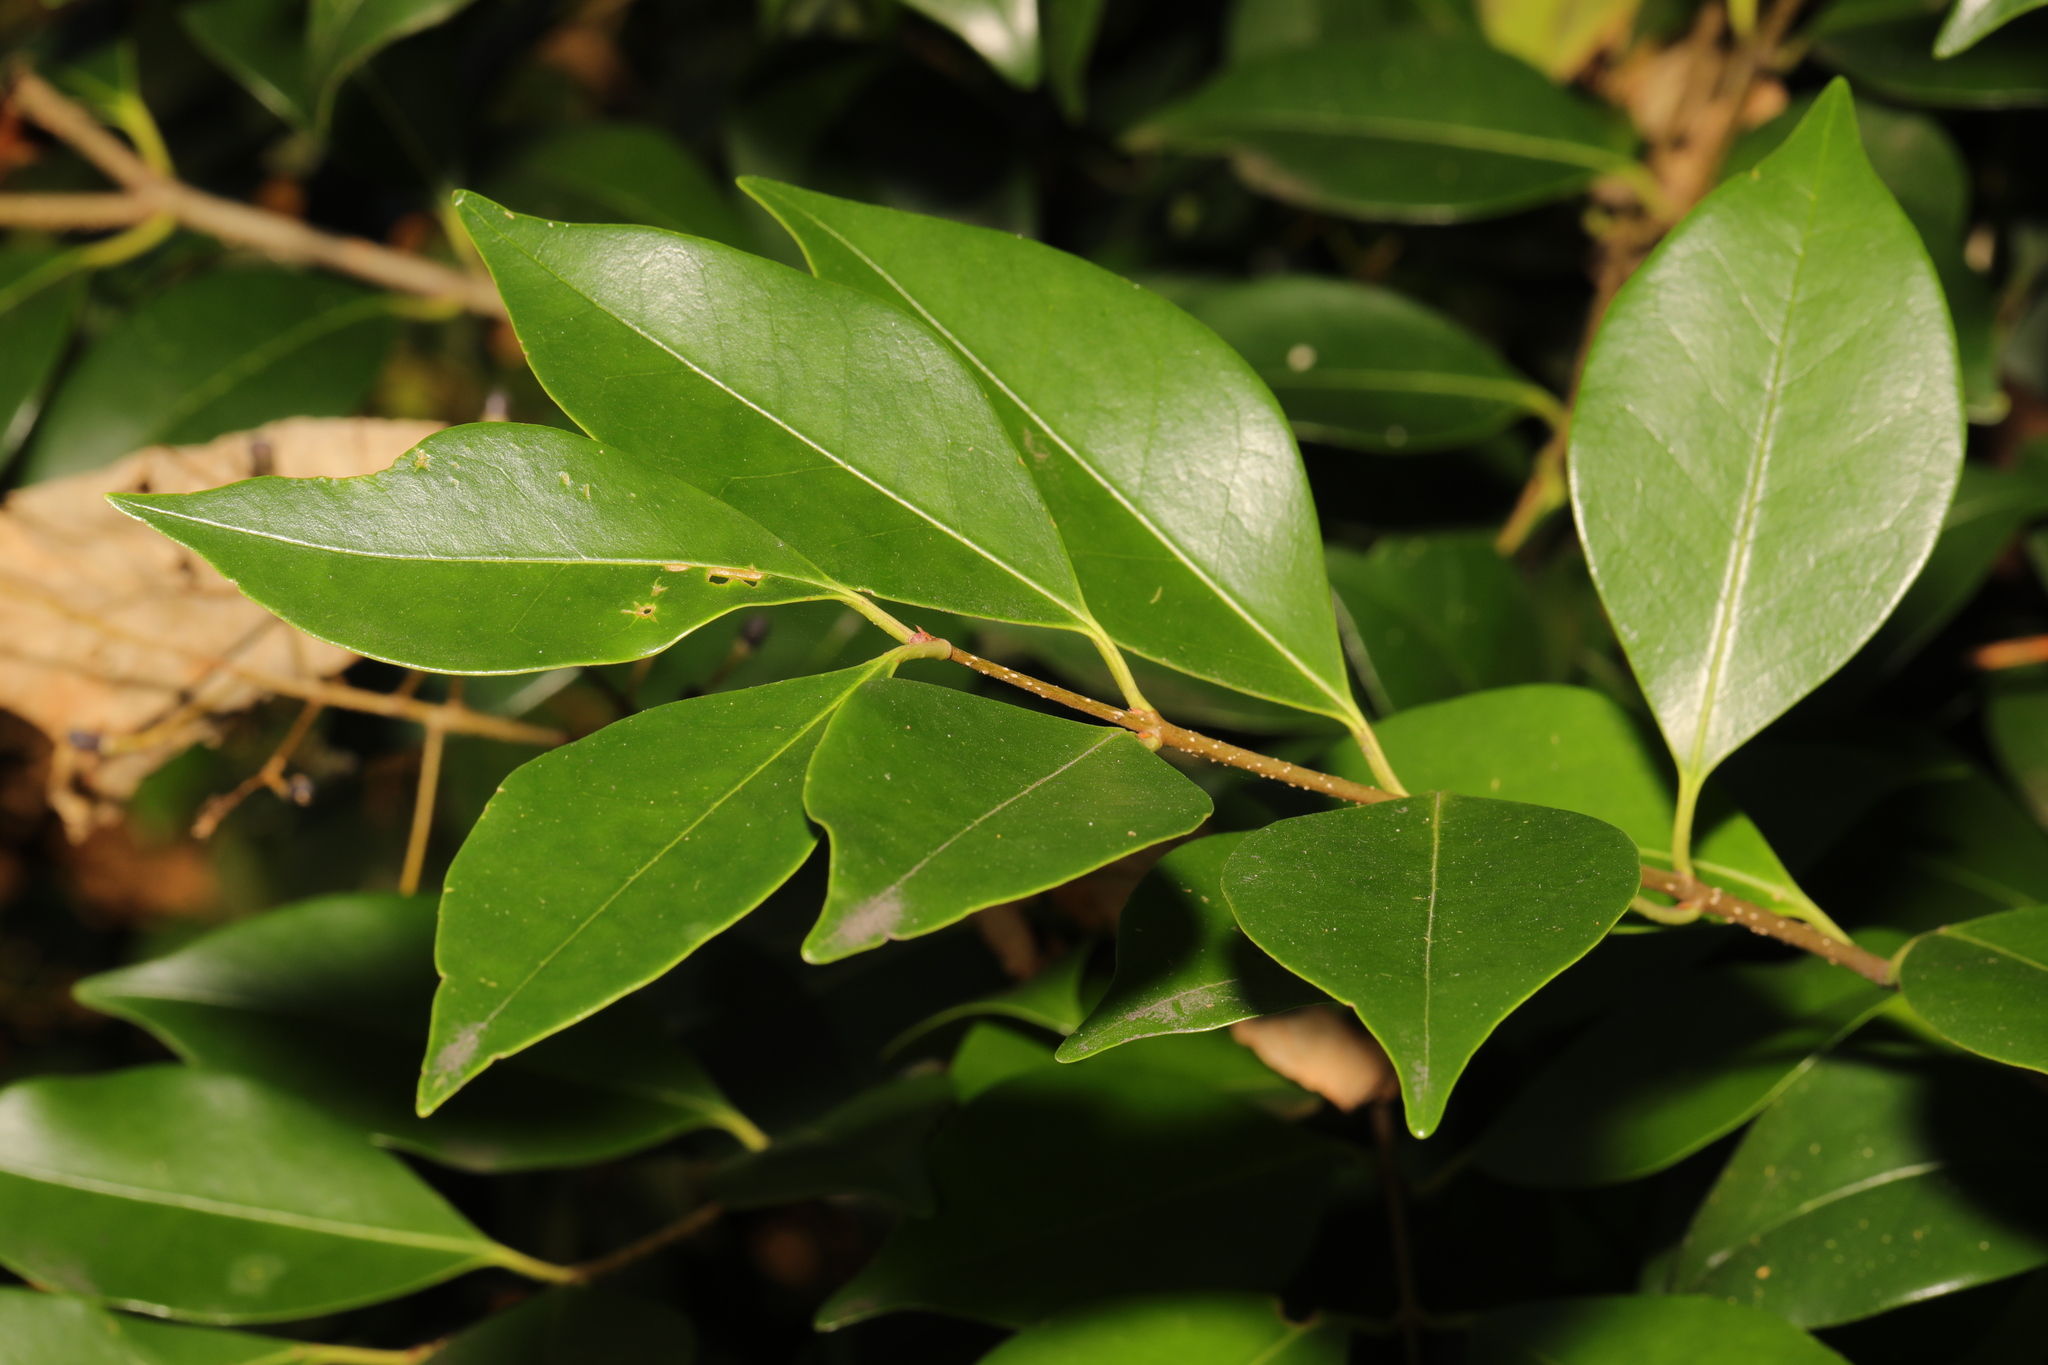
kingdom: Plantae
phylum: Tracheophyta
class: Magnoliopsida
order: Lamiales
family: Oleaceae
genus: Ligustrum
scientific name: Ligustrum lucidum
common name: Glossy privet
